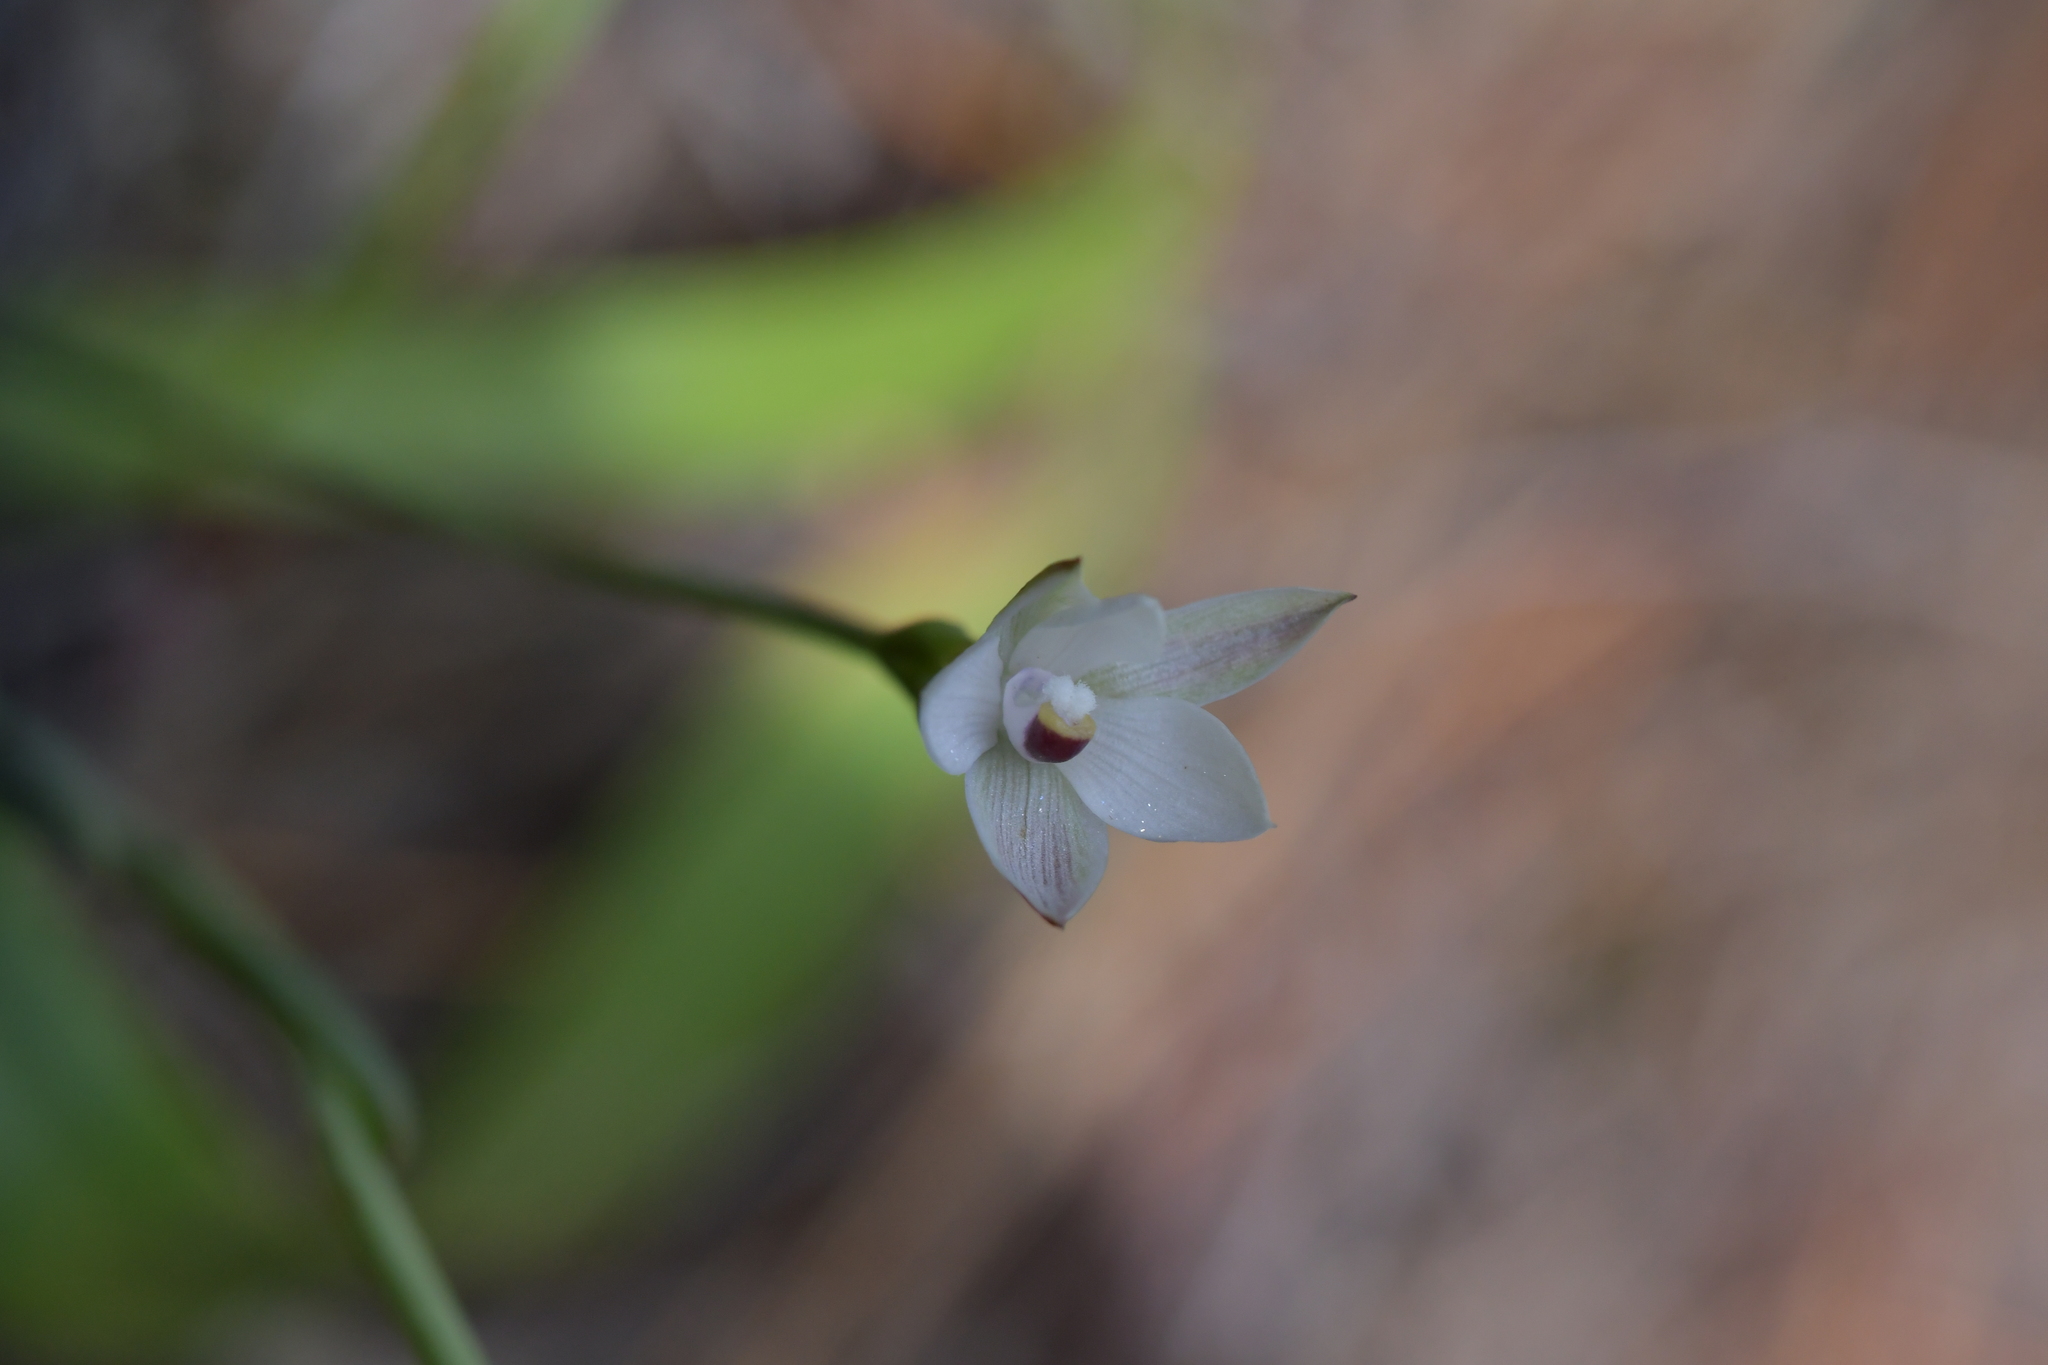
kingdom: Plantae
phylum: Tracheophyta
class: Liliopsida
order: Asparagales
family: Orchidaceae
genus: Thelymitra
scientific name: Thelymitra longifolia
